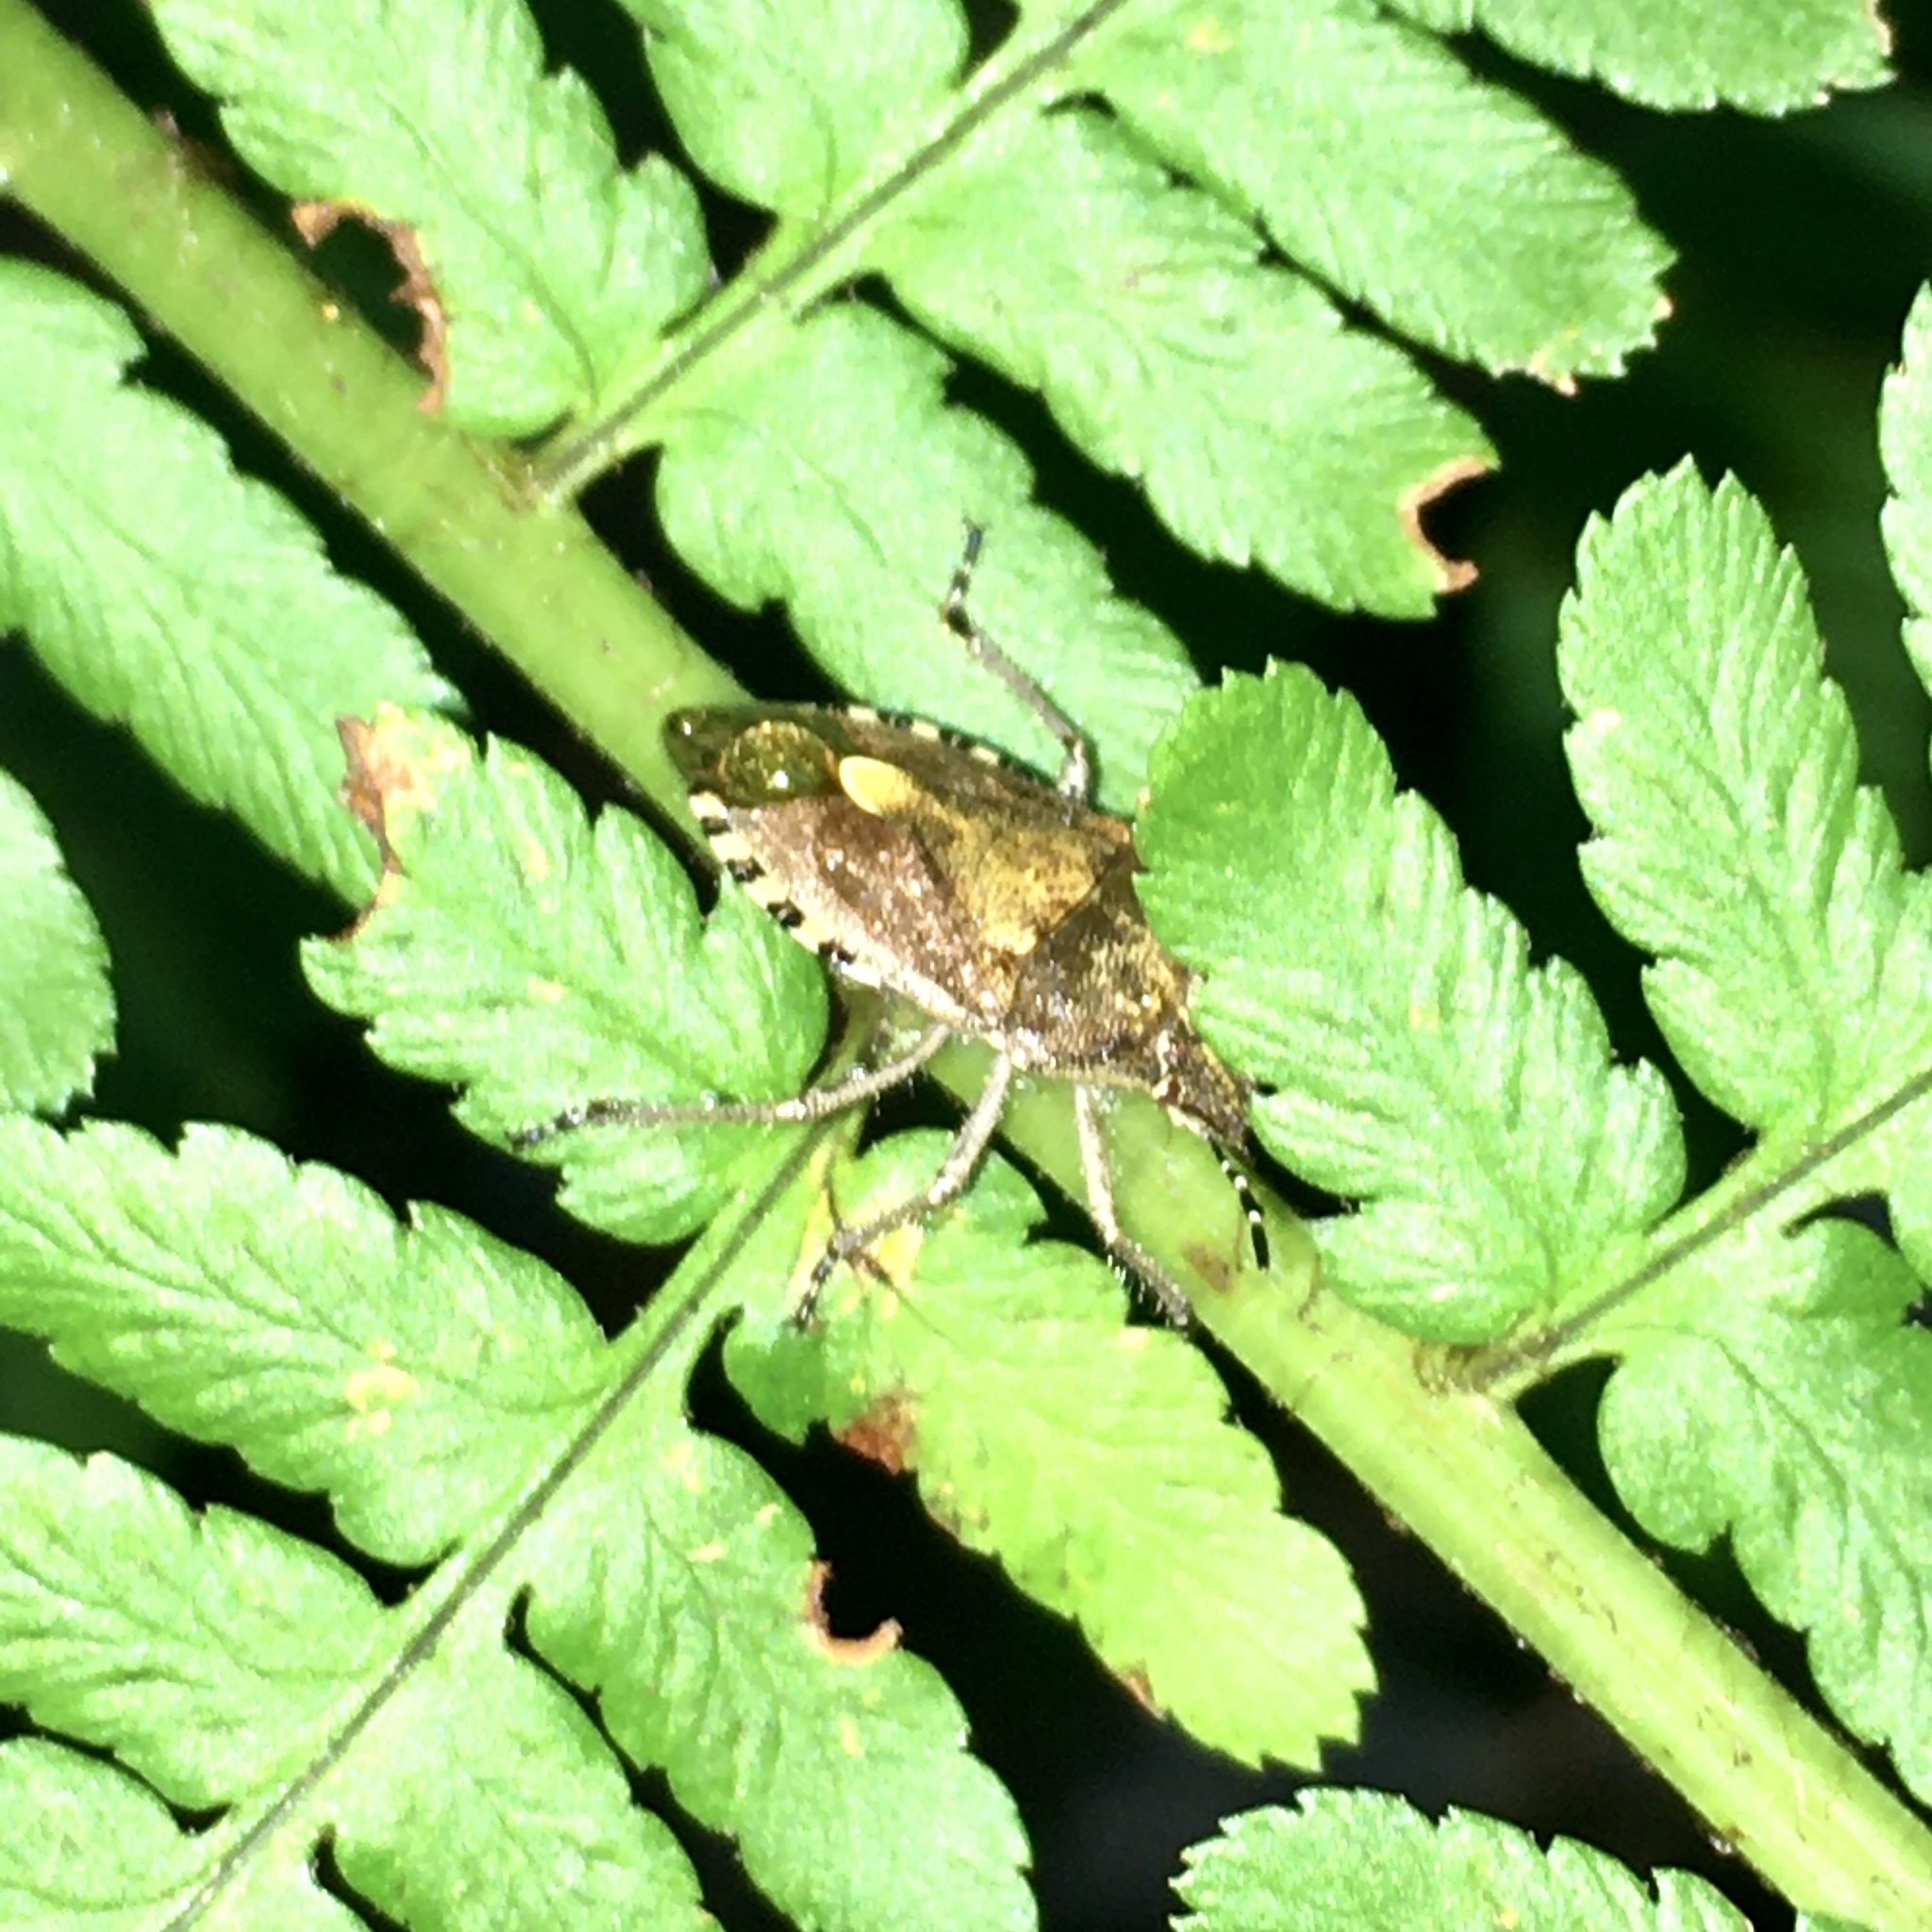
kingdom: Animalia
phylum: Arthropoda
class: Insecta
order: Hemiptera
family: Pentatomidae
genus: Dolycoris
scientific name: Dolycoris baccarum
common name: Sloe bug
